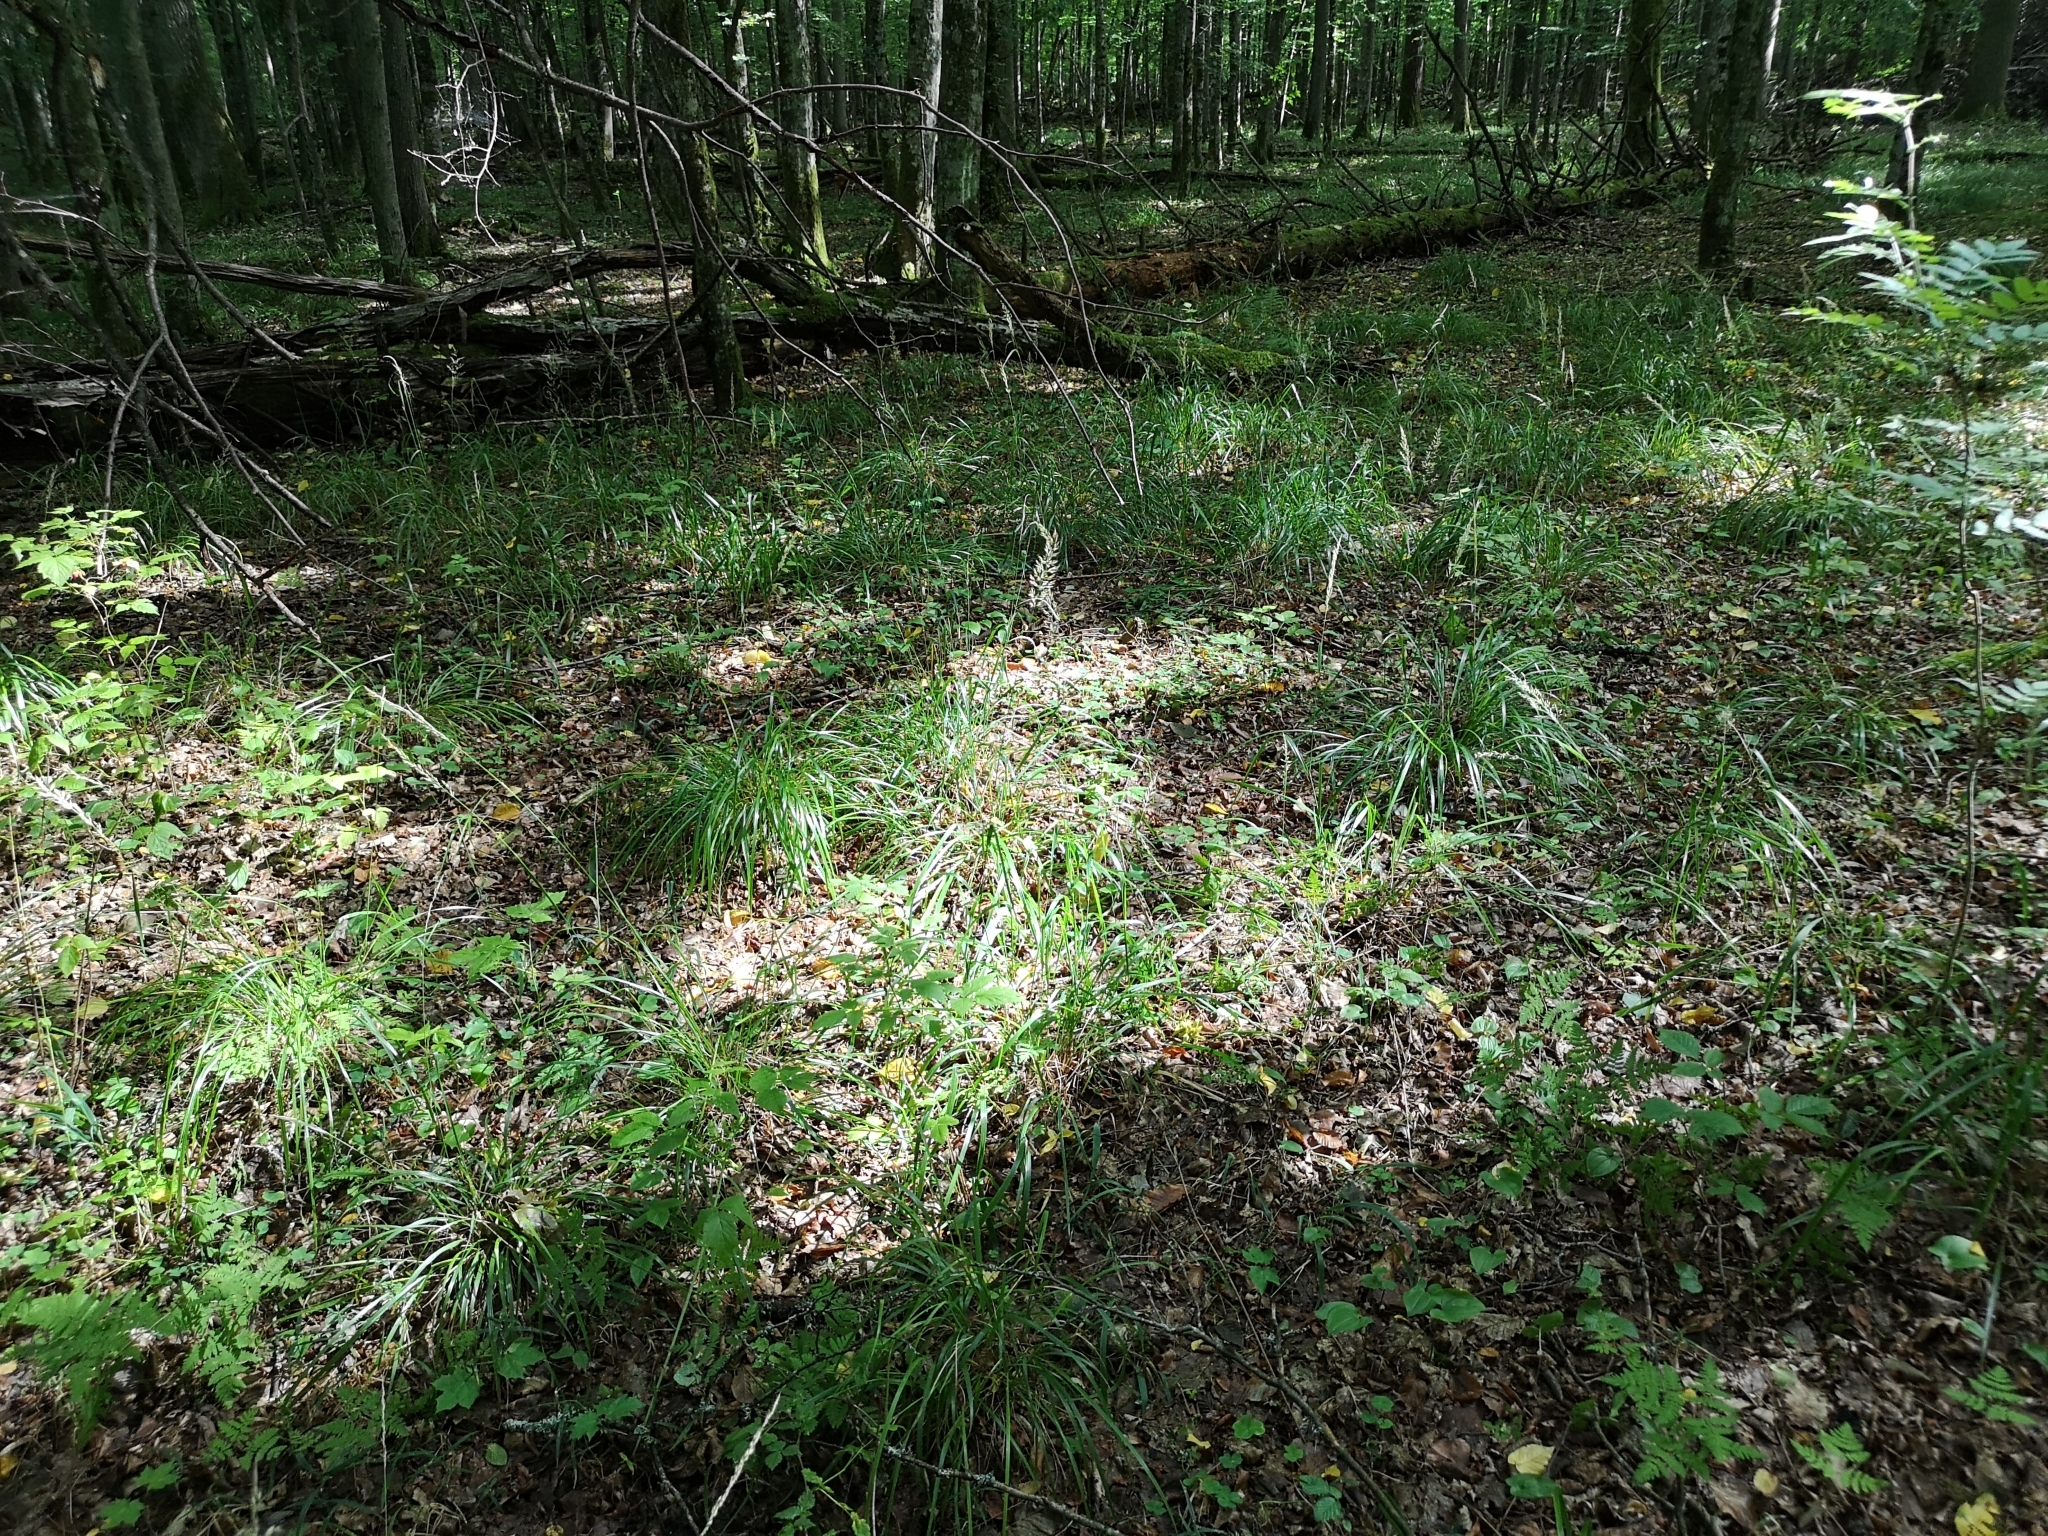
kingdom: Plantae
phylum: Tracheophyta
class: Liliopsida
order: Poales
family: Poaceae
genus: Calamagrostis
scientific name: Calamagrostis arundinacea
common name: Metskastik
